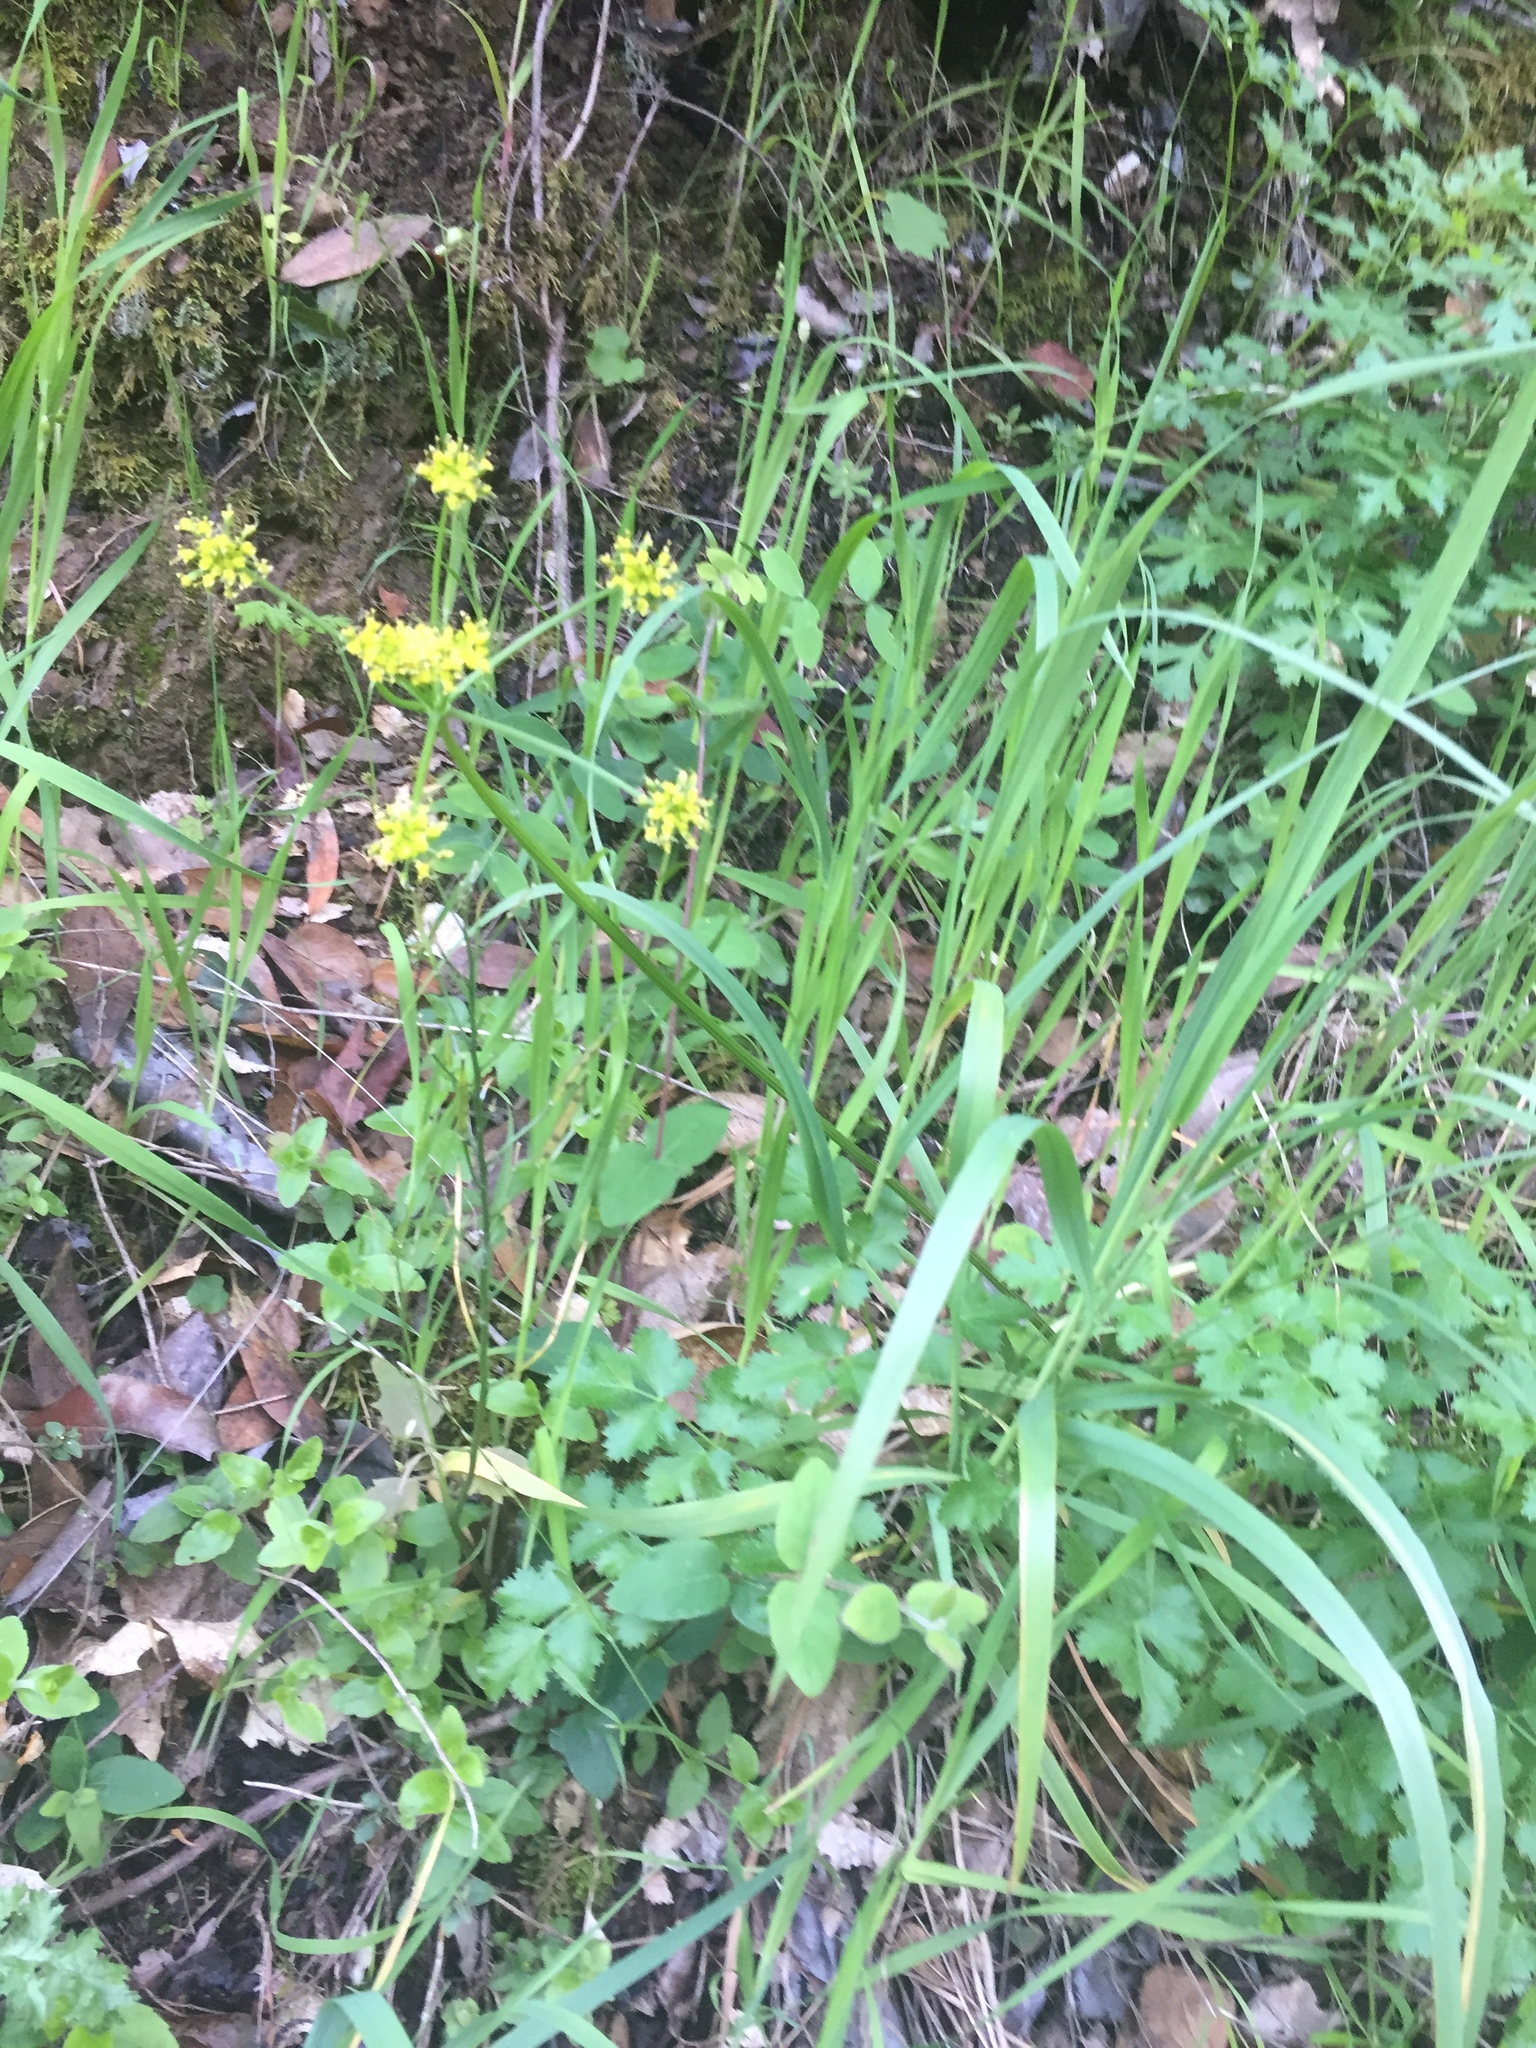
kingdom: Plantae
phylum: Tracheophyta
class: Magnoliopsida
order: Apiales
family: Apiaceae
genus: Tauschia
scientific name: Tauschia kelloggii
